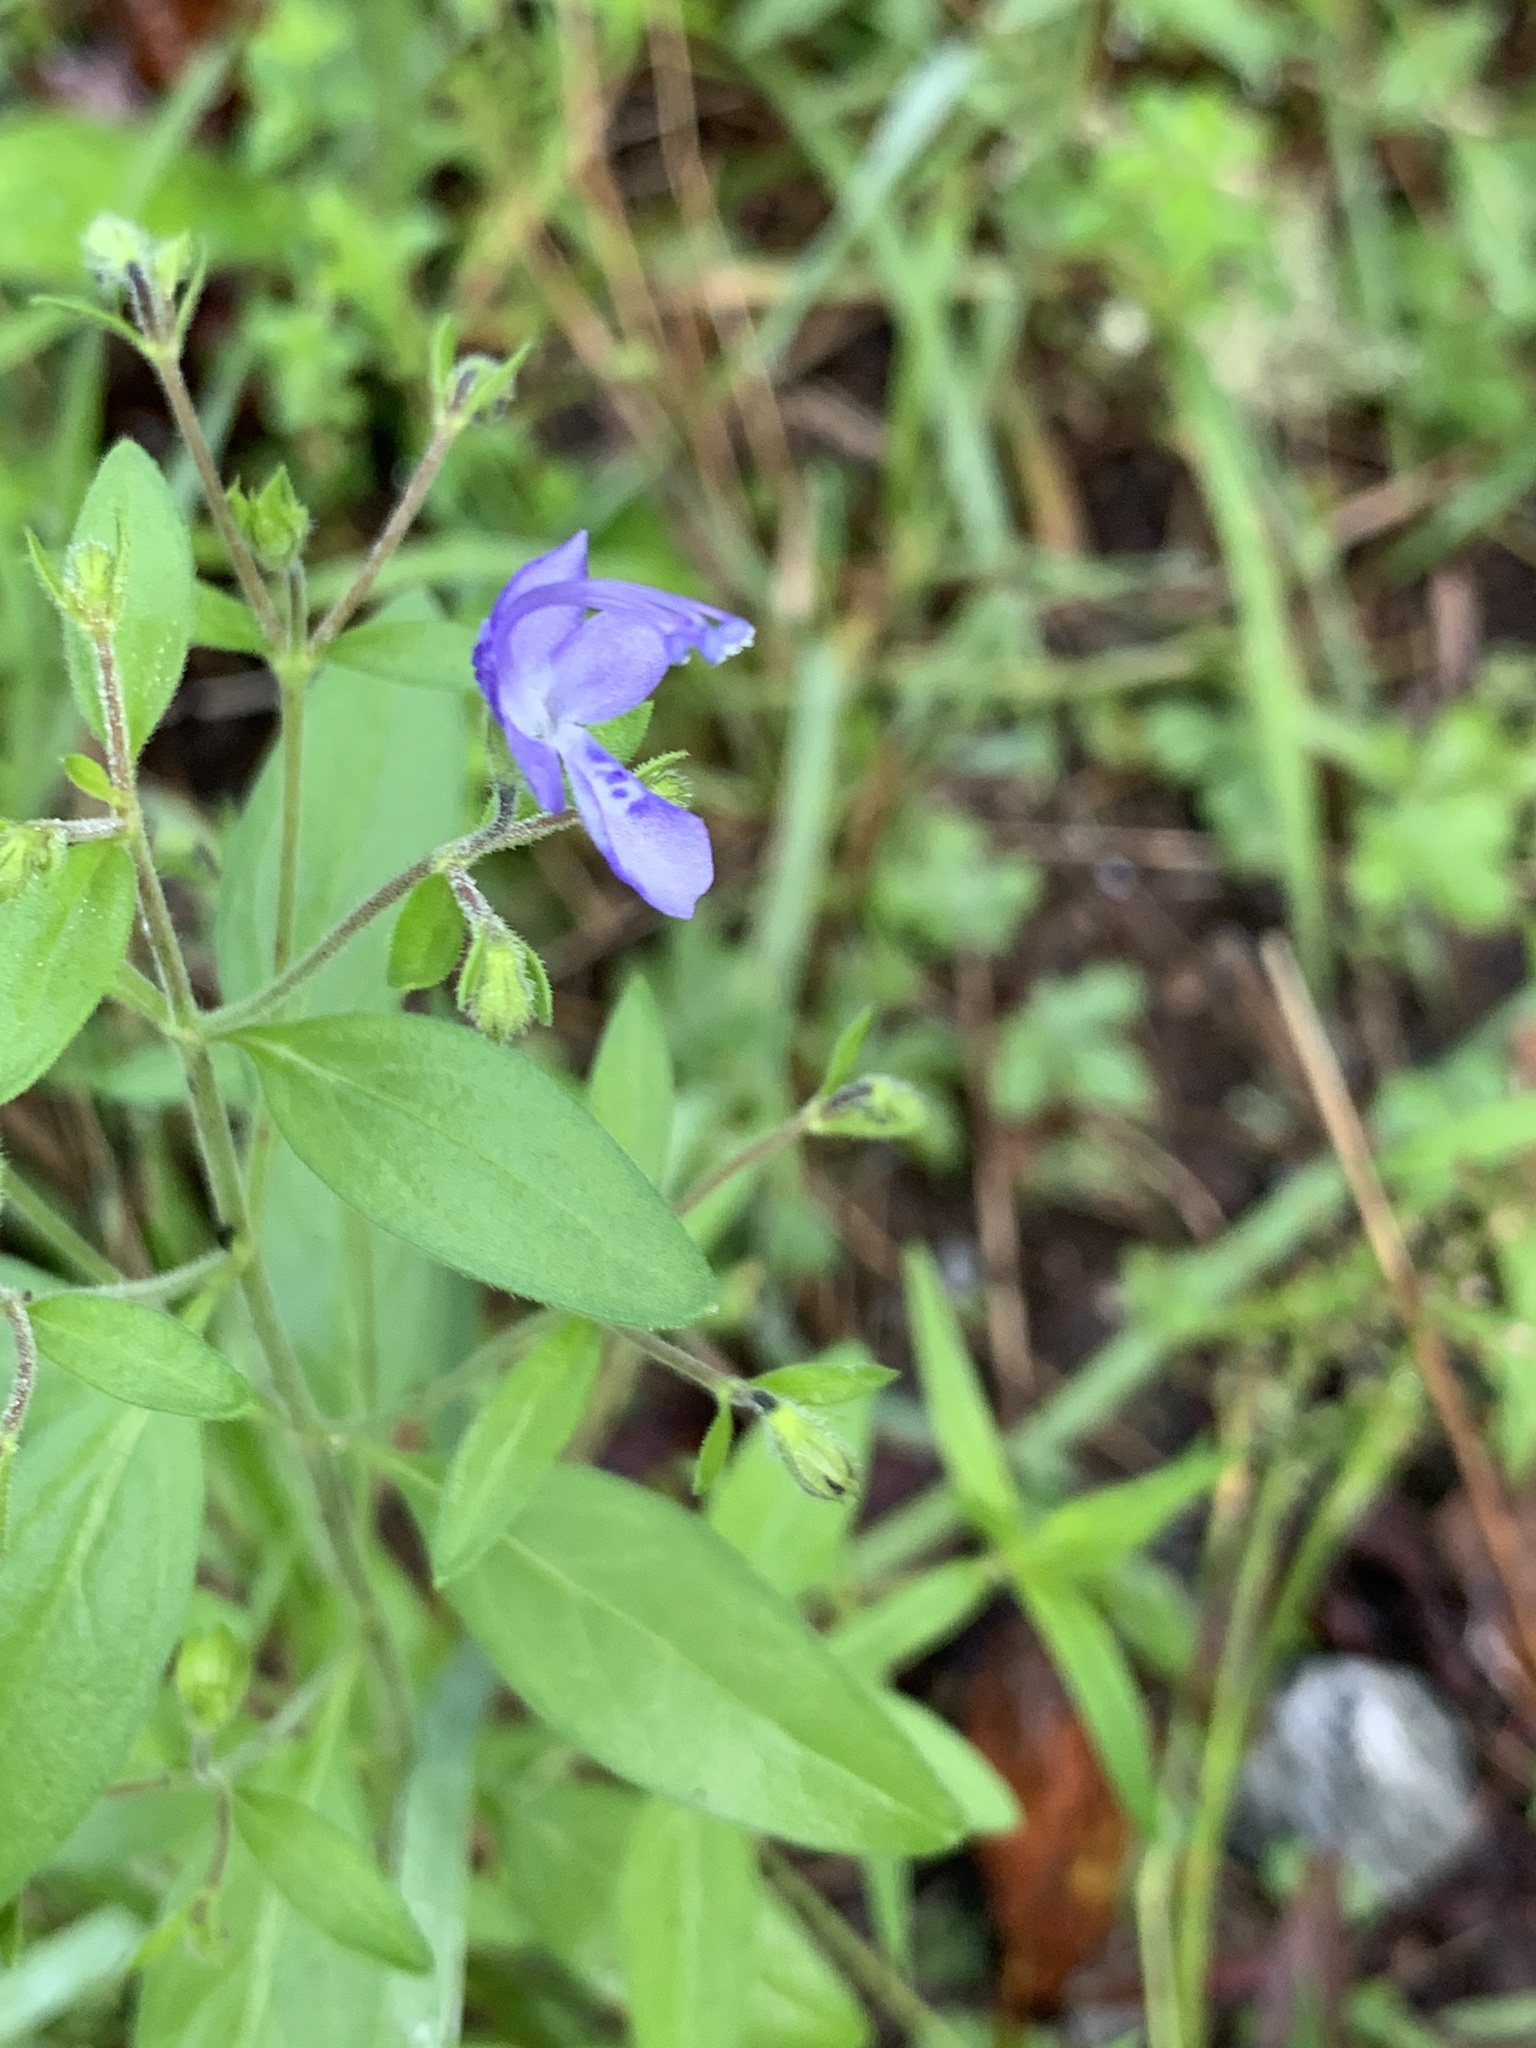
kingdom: Plantae
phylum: Tracheophyta
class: Magnoliopsida
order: Lamiales
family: Lamiaceae
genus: Trichostema
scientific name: Trichostema dichotomum
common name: Bastard pennyroyal
